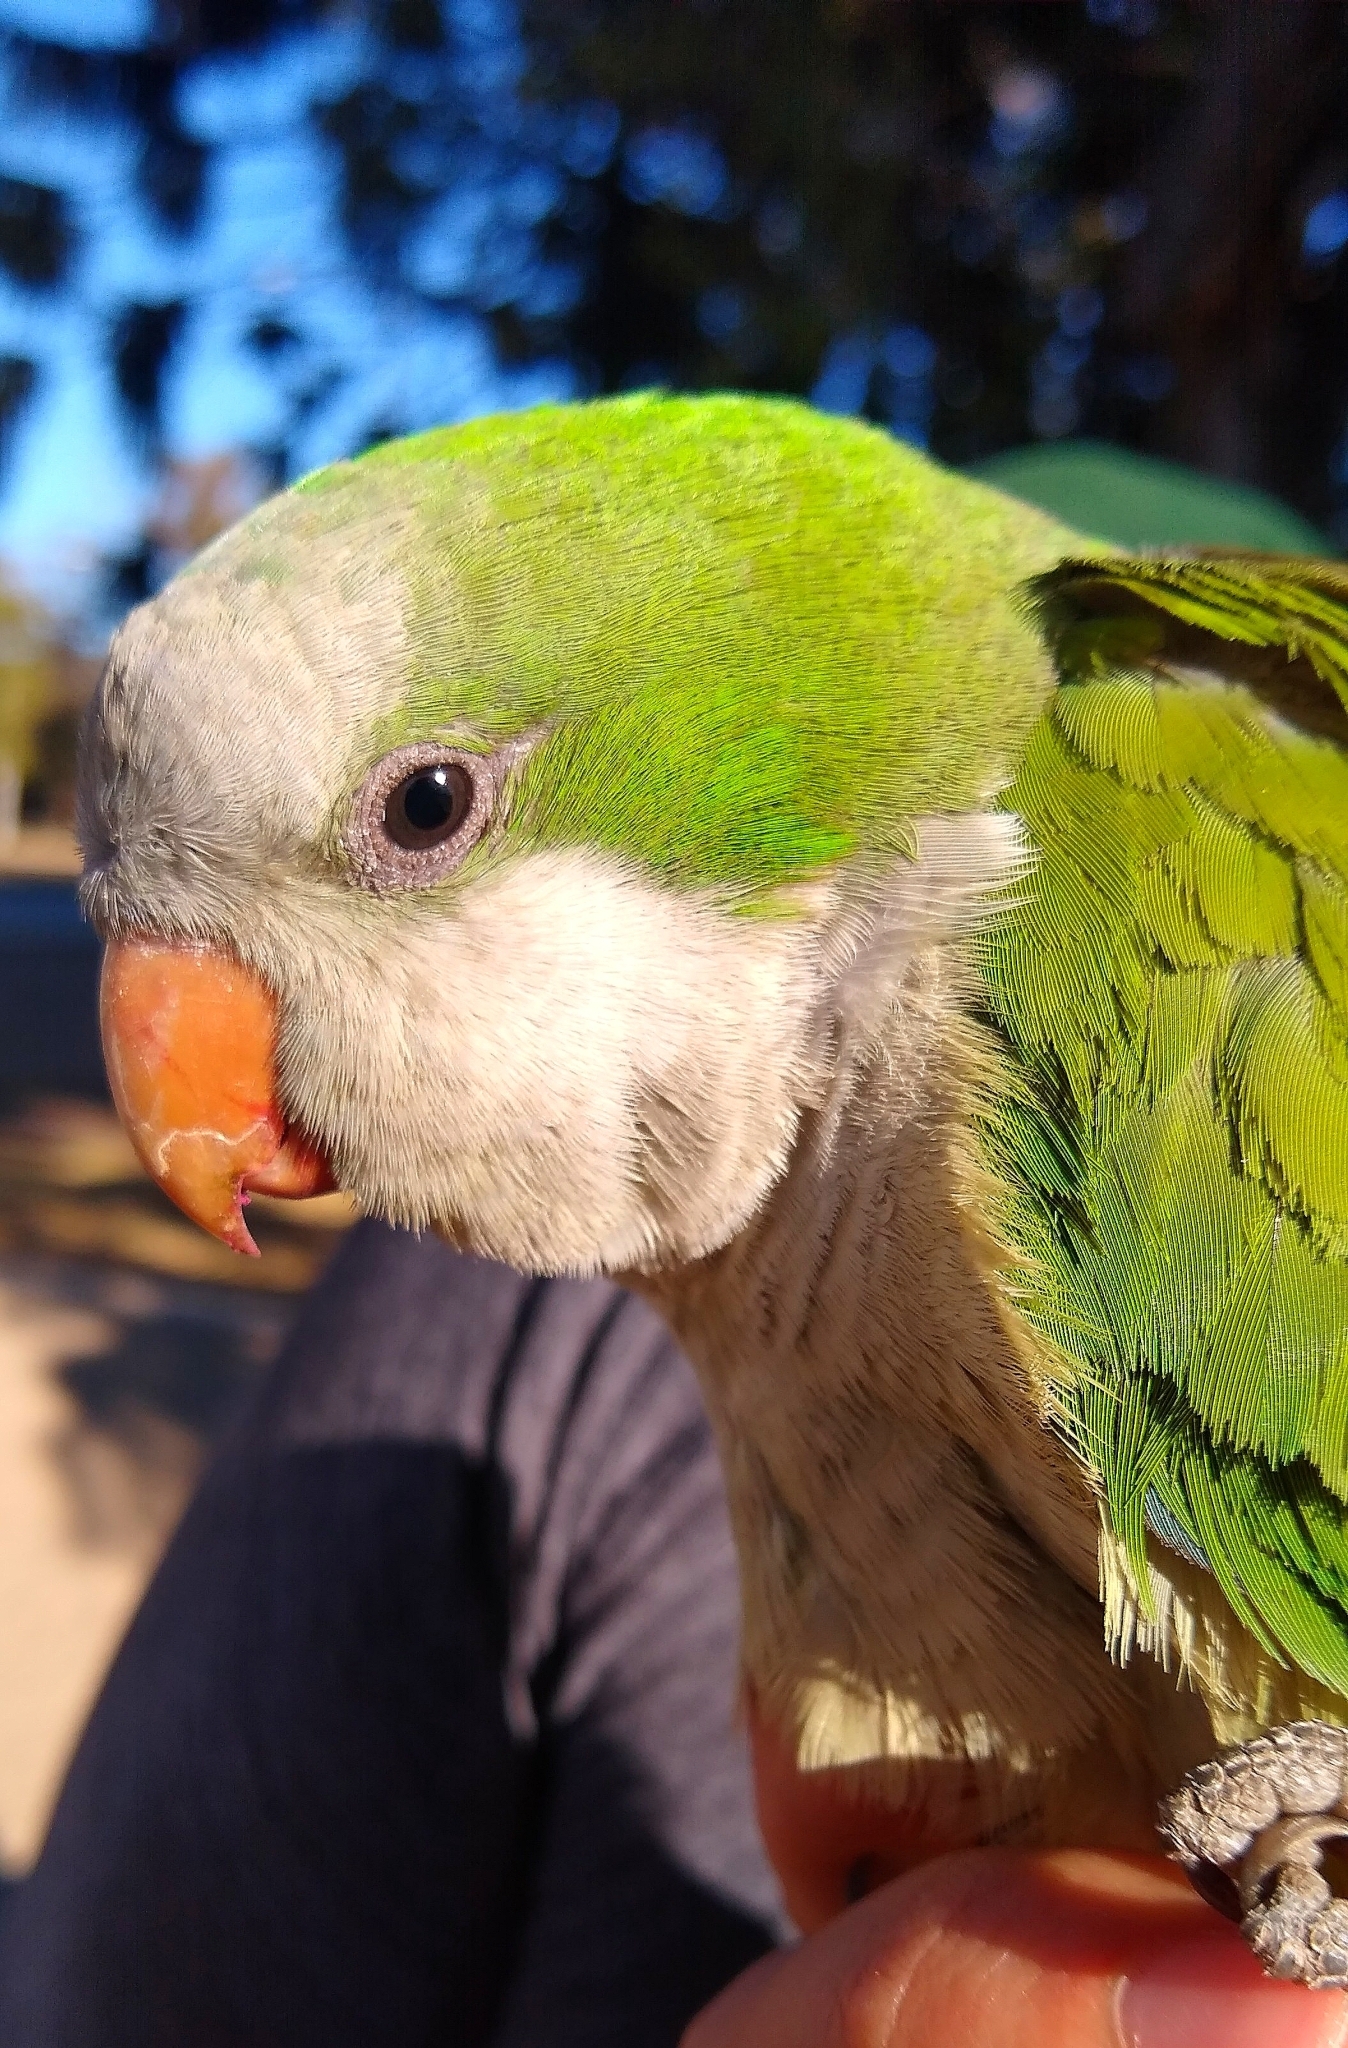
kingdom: Animalia
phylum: Chordata
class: Aves
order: Psittaciformes
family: Psittacidae
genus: Myiopsitta
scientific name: Myiopsitta monachus
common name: Monk parakeet
